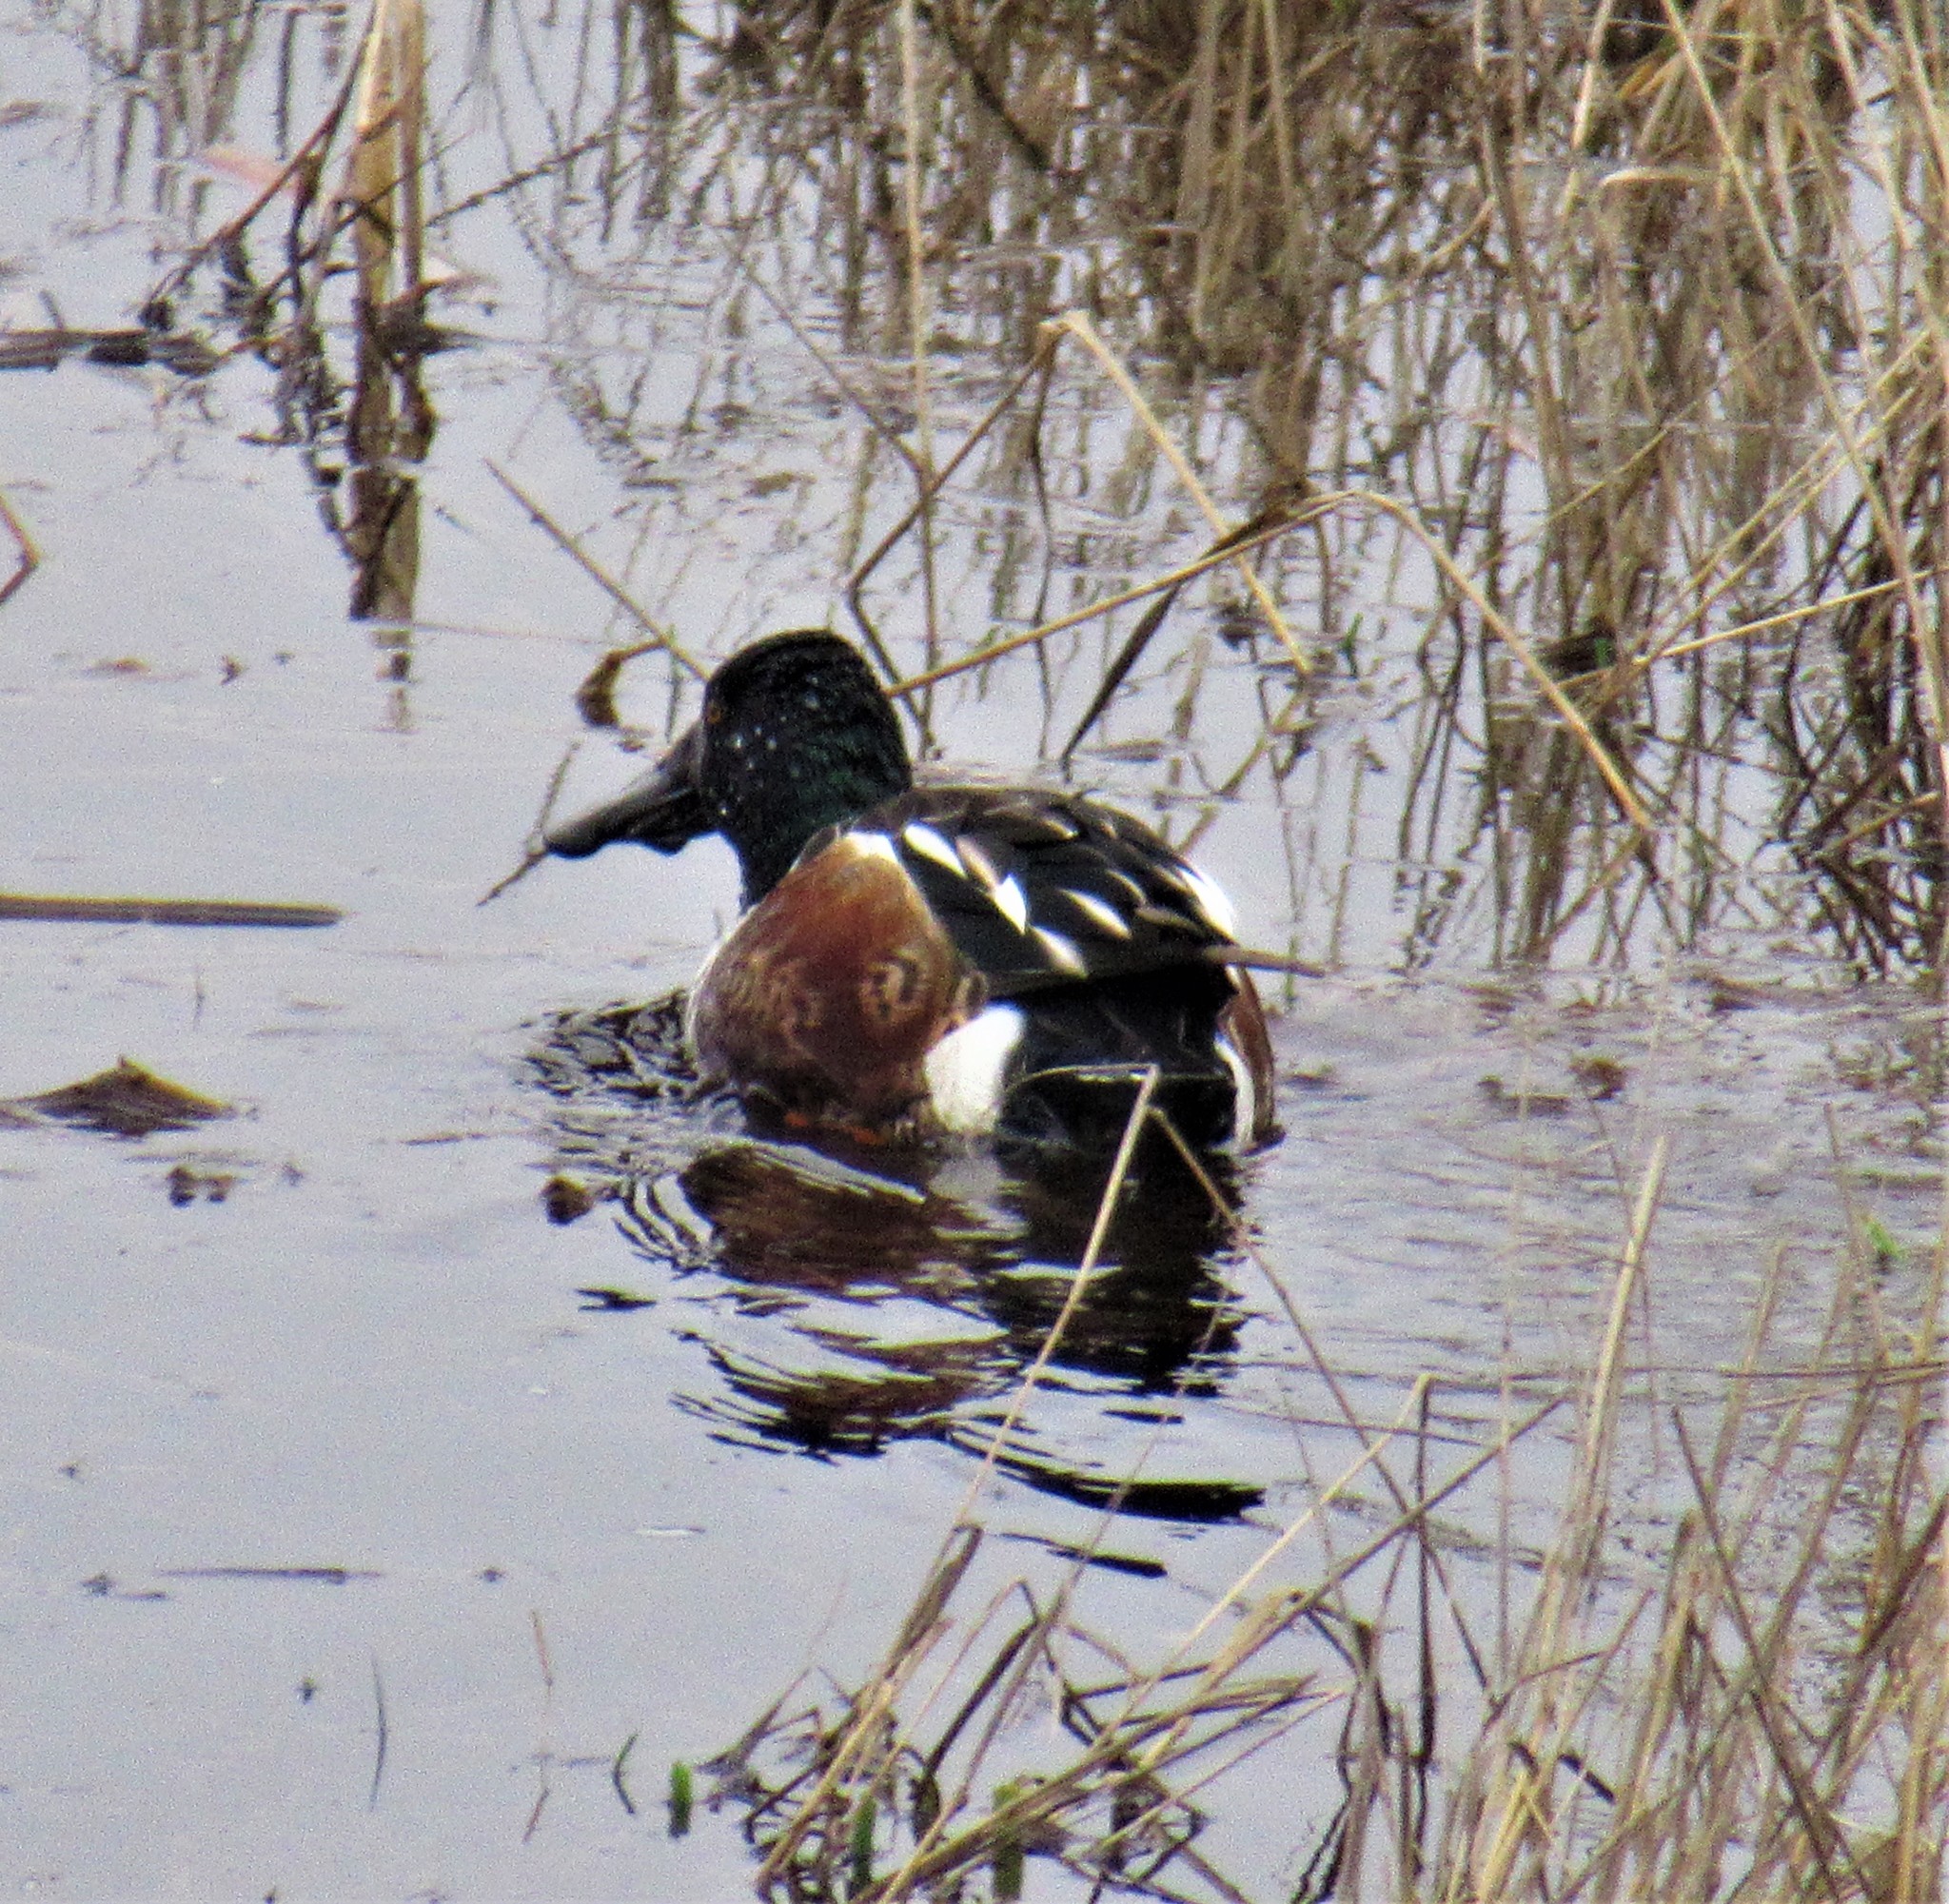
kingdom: Animalia
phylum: Chordata
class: Aves
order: Anseriformes
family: Anatidae
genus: Spatula
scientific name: Spatula clypeata
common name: Northern shoveler
